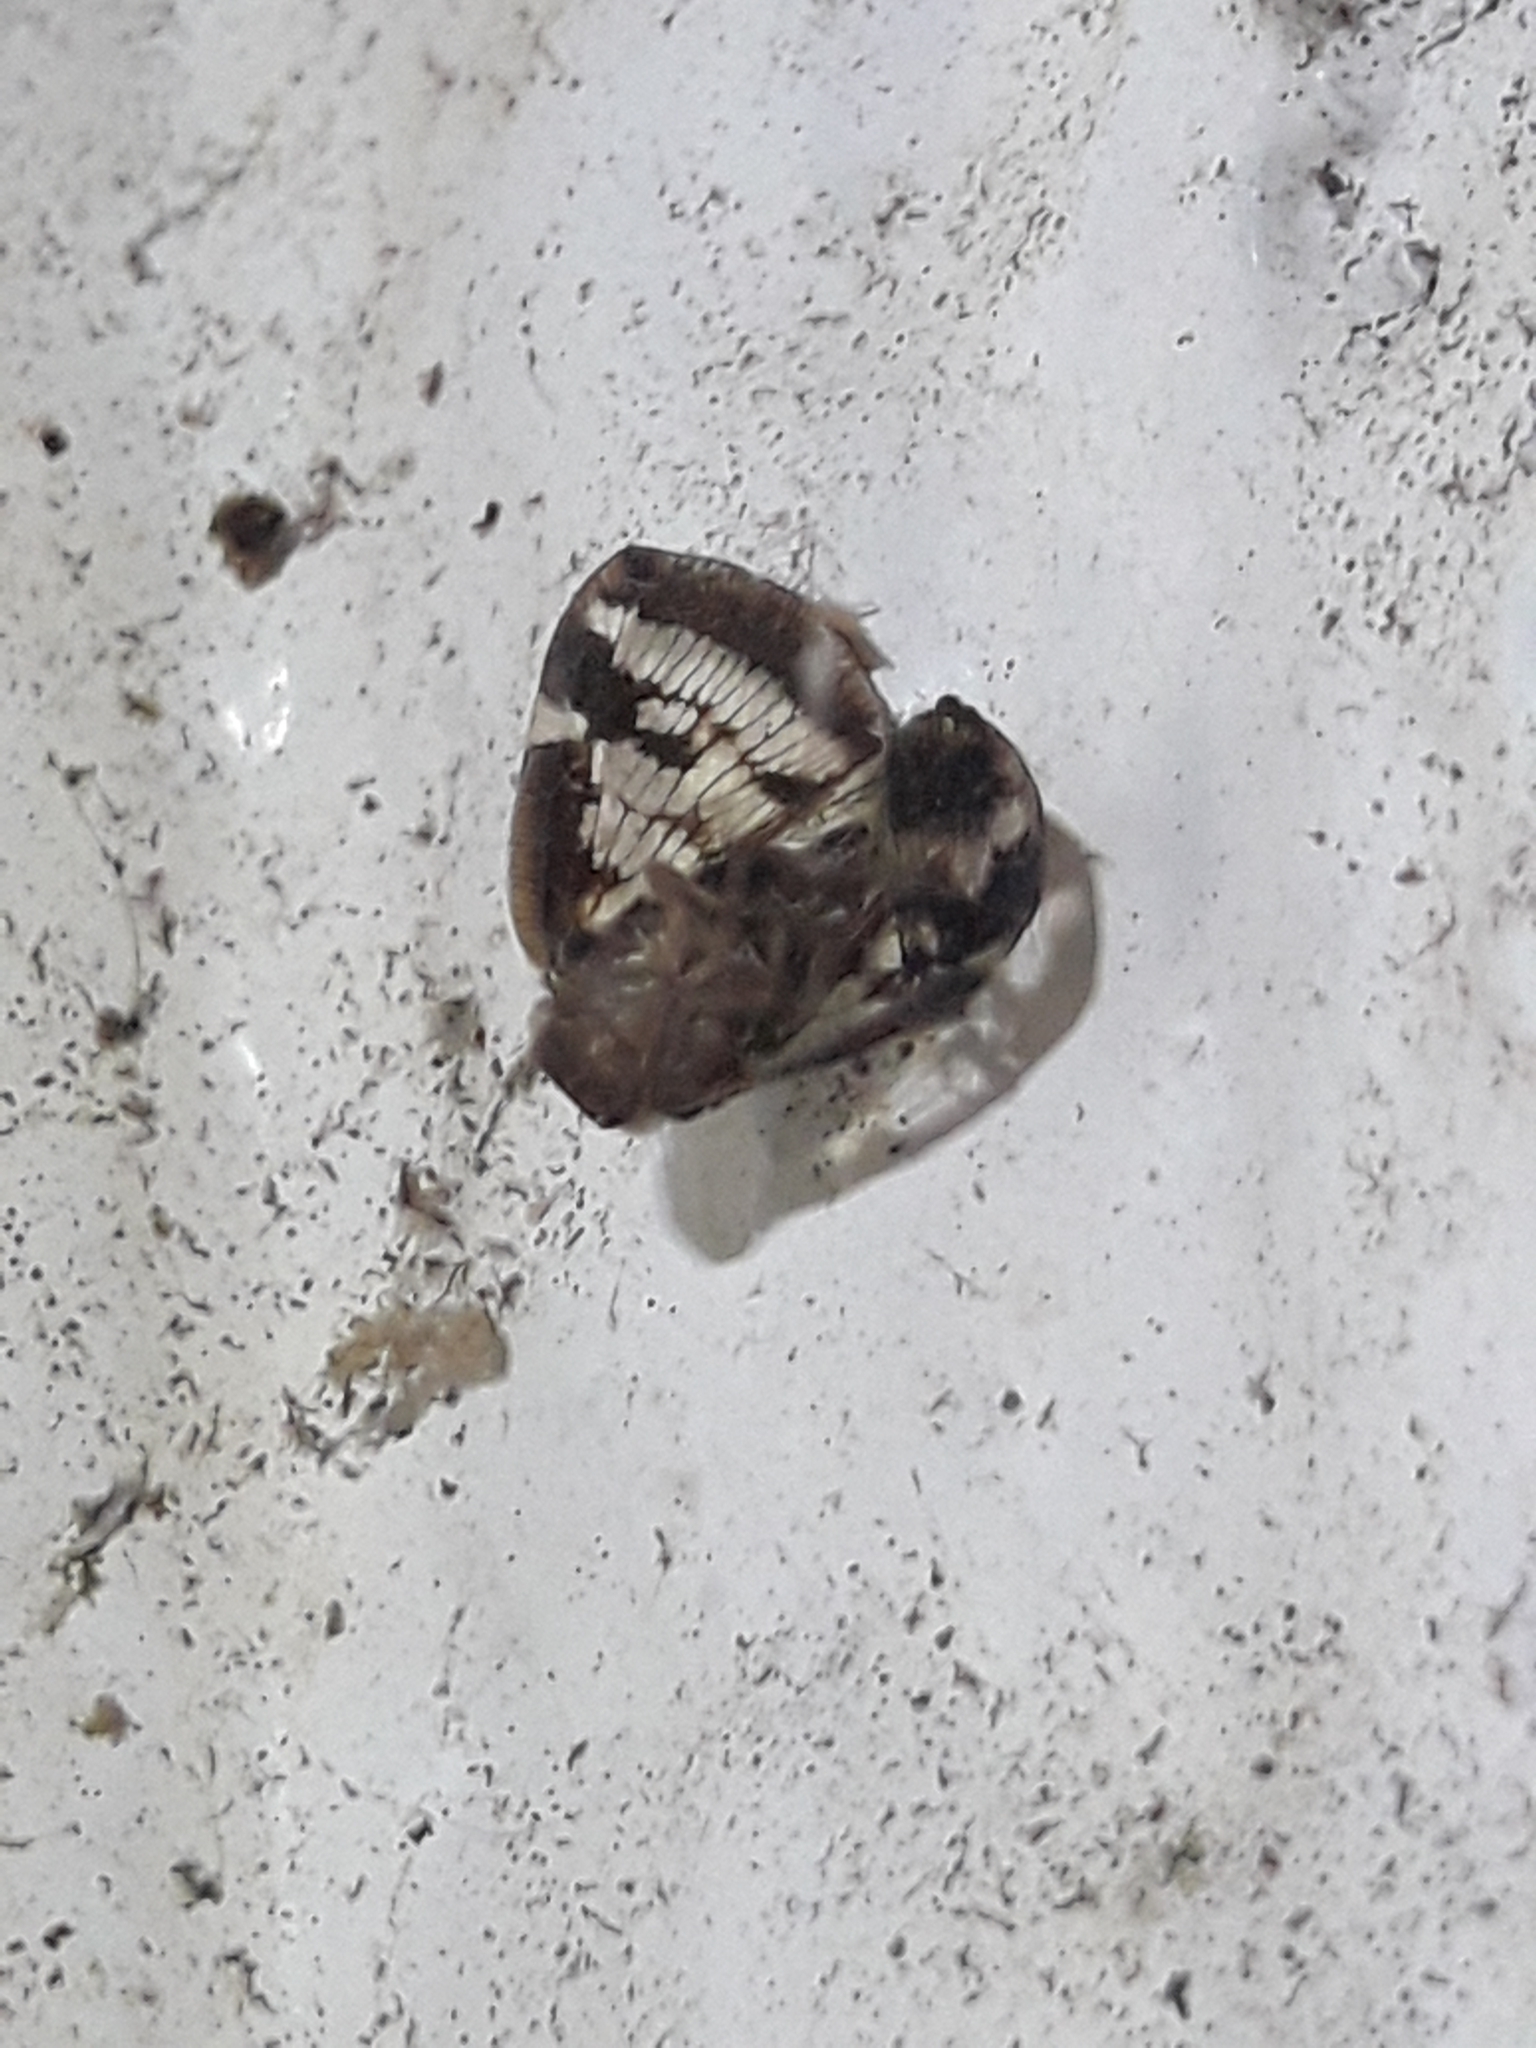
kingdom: Animalia
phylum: Arthropoda
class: Insecta
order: Hemiptera
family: Ricaniidae
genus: Scolypopa
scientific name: Scolypopa australis
